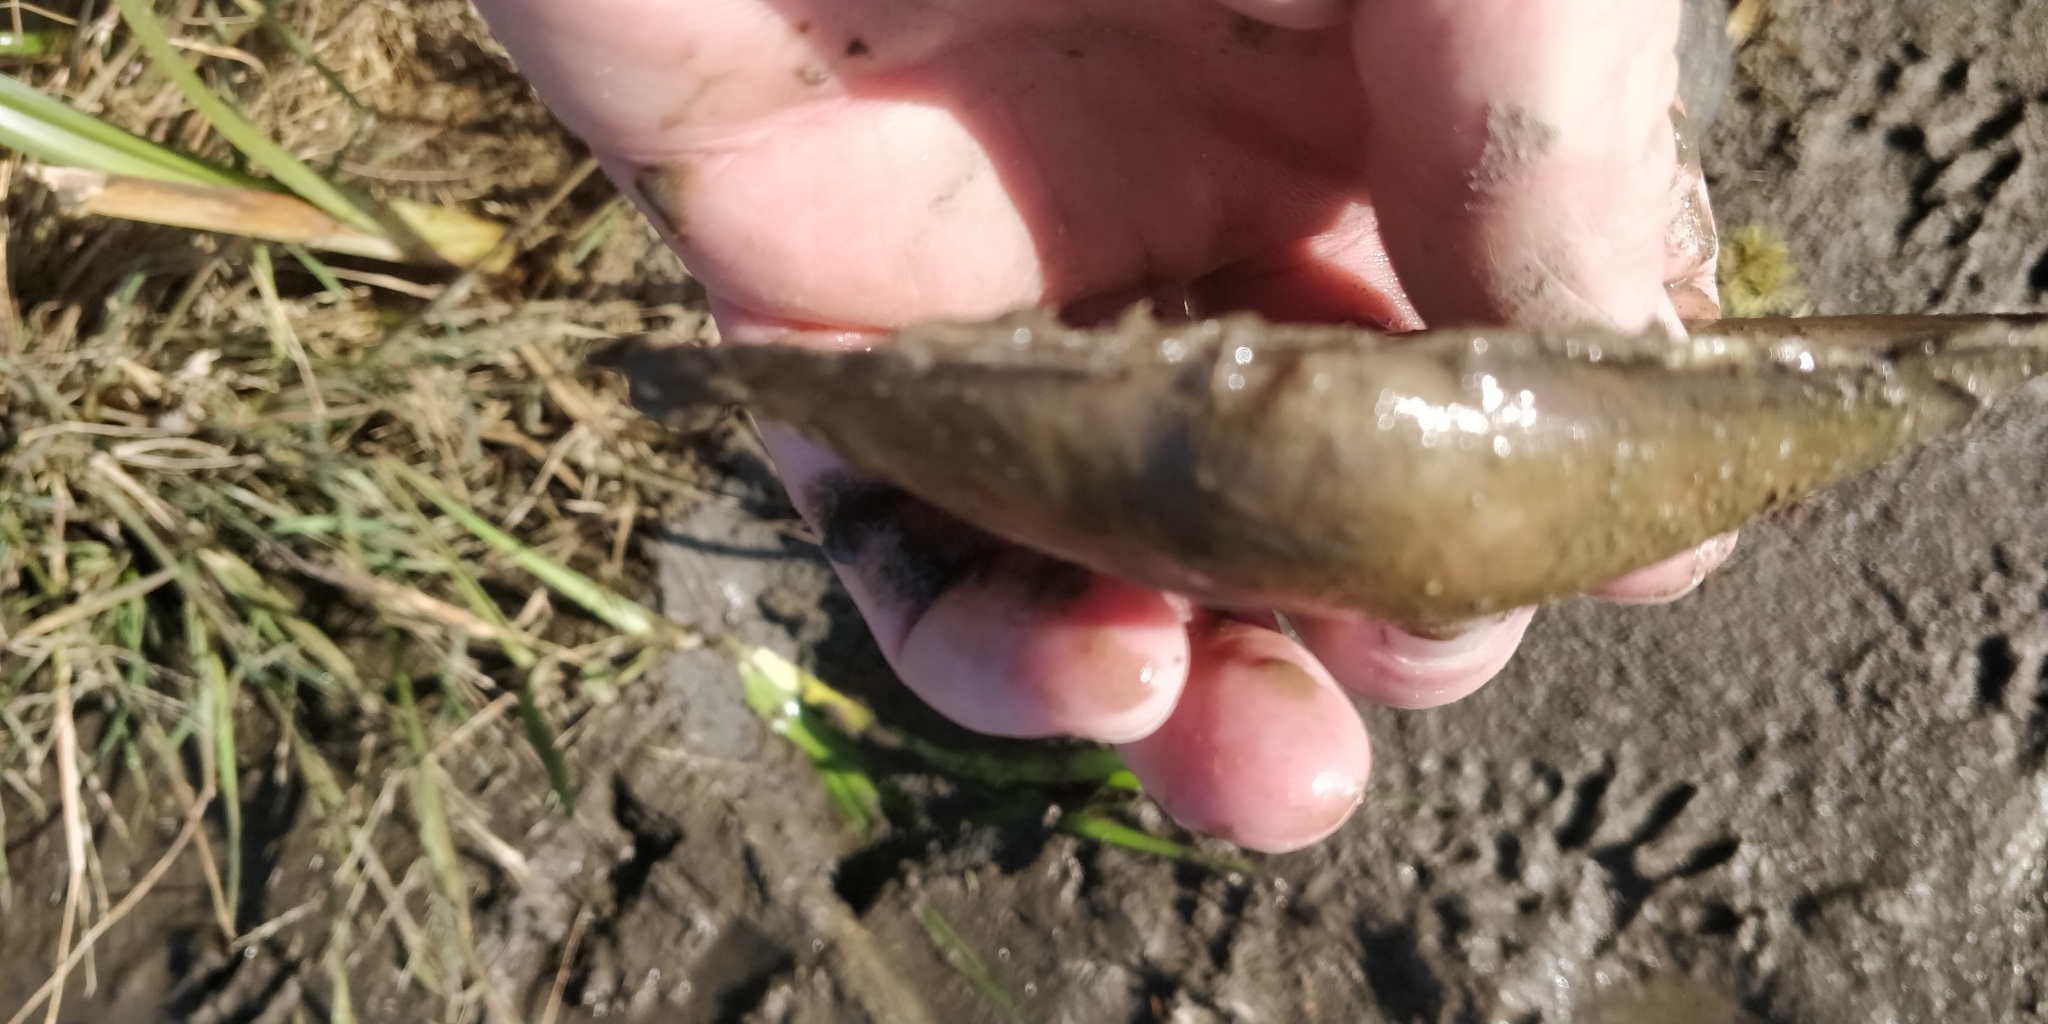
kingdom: Animalia
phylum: Mollusca
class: Bivalvia
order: Unionida
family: Unionidae
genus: Pyganodon
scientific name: Pyganodon grandis
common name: Giant floater
